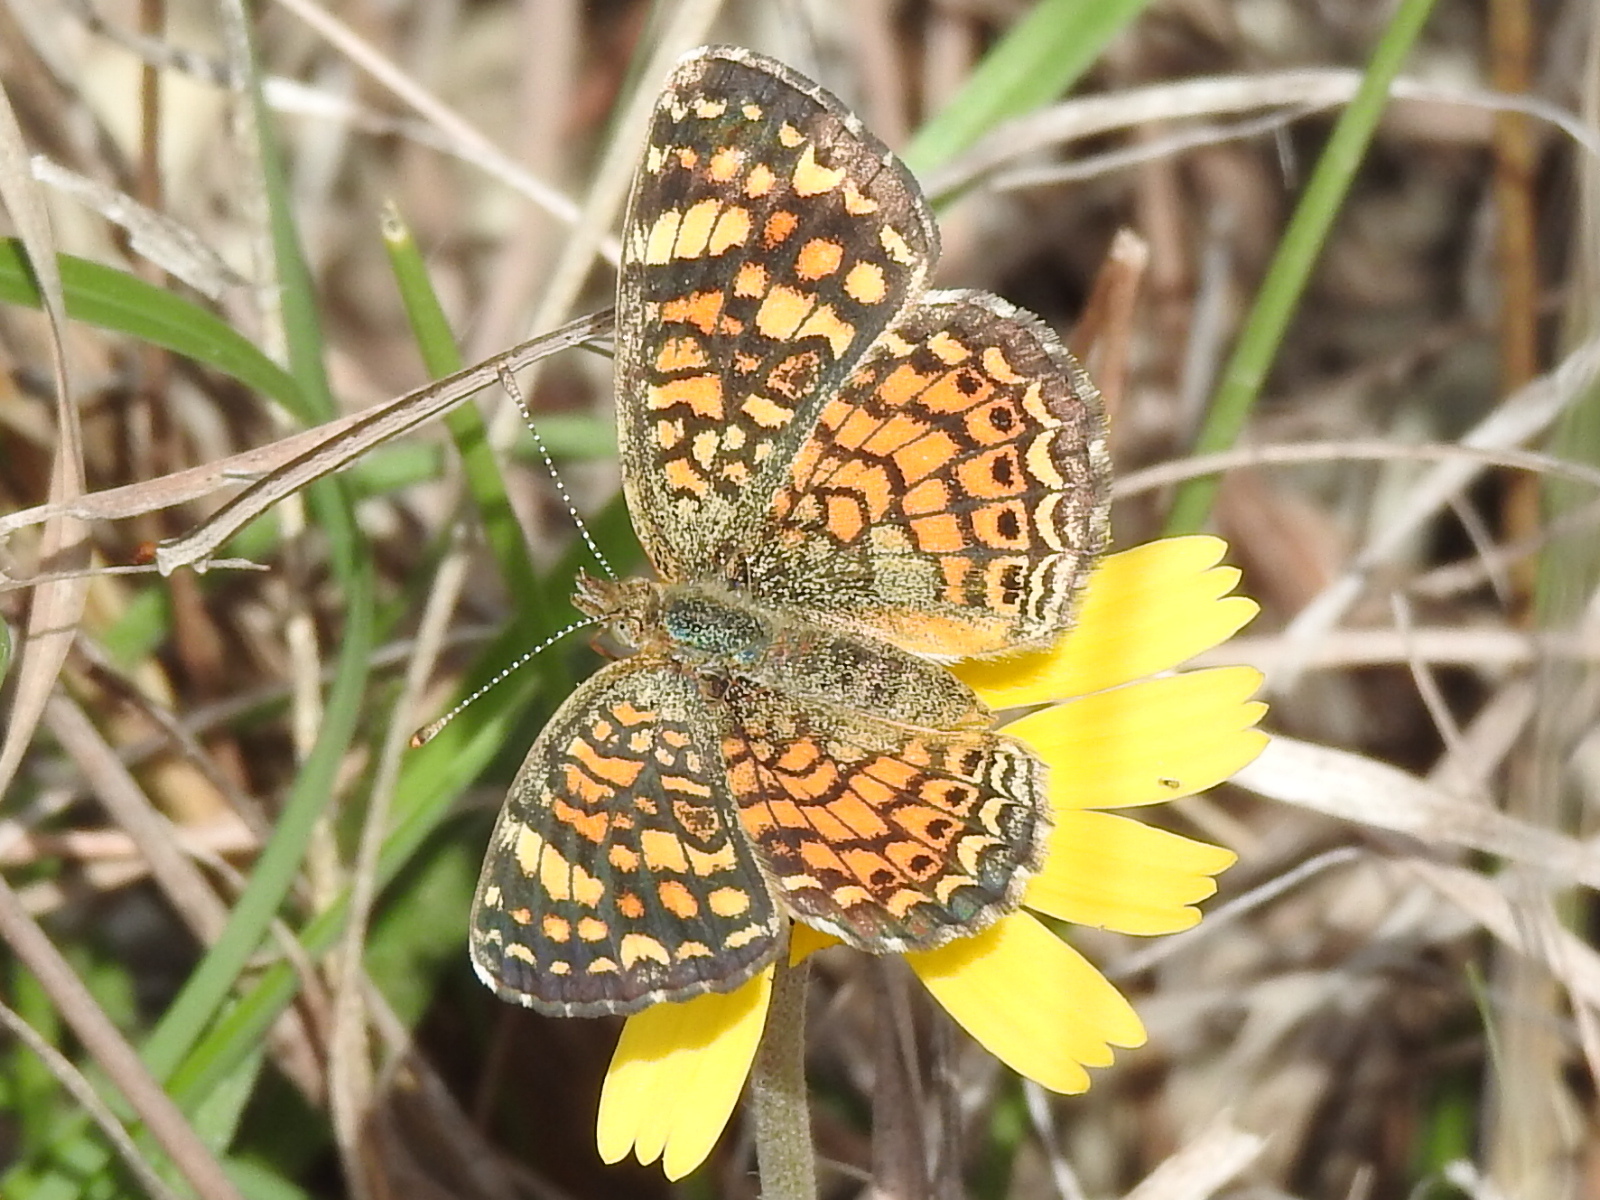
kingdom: Animalia
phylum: Arthropoda
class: Insecta
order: Lepidoptera
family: Nymphalidae
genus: Phyciodes
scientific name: Phyciodes vesta
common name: Vesta crescent
